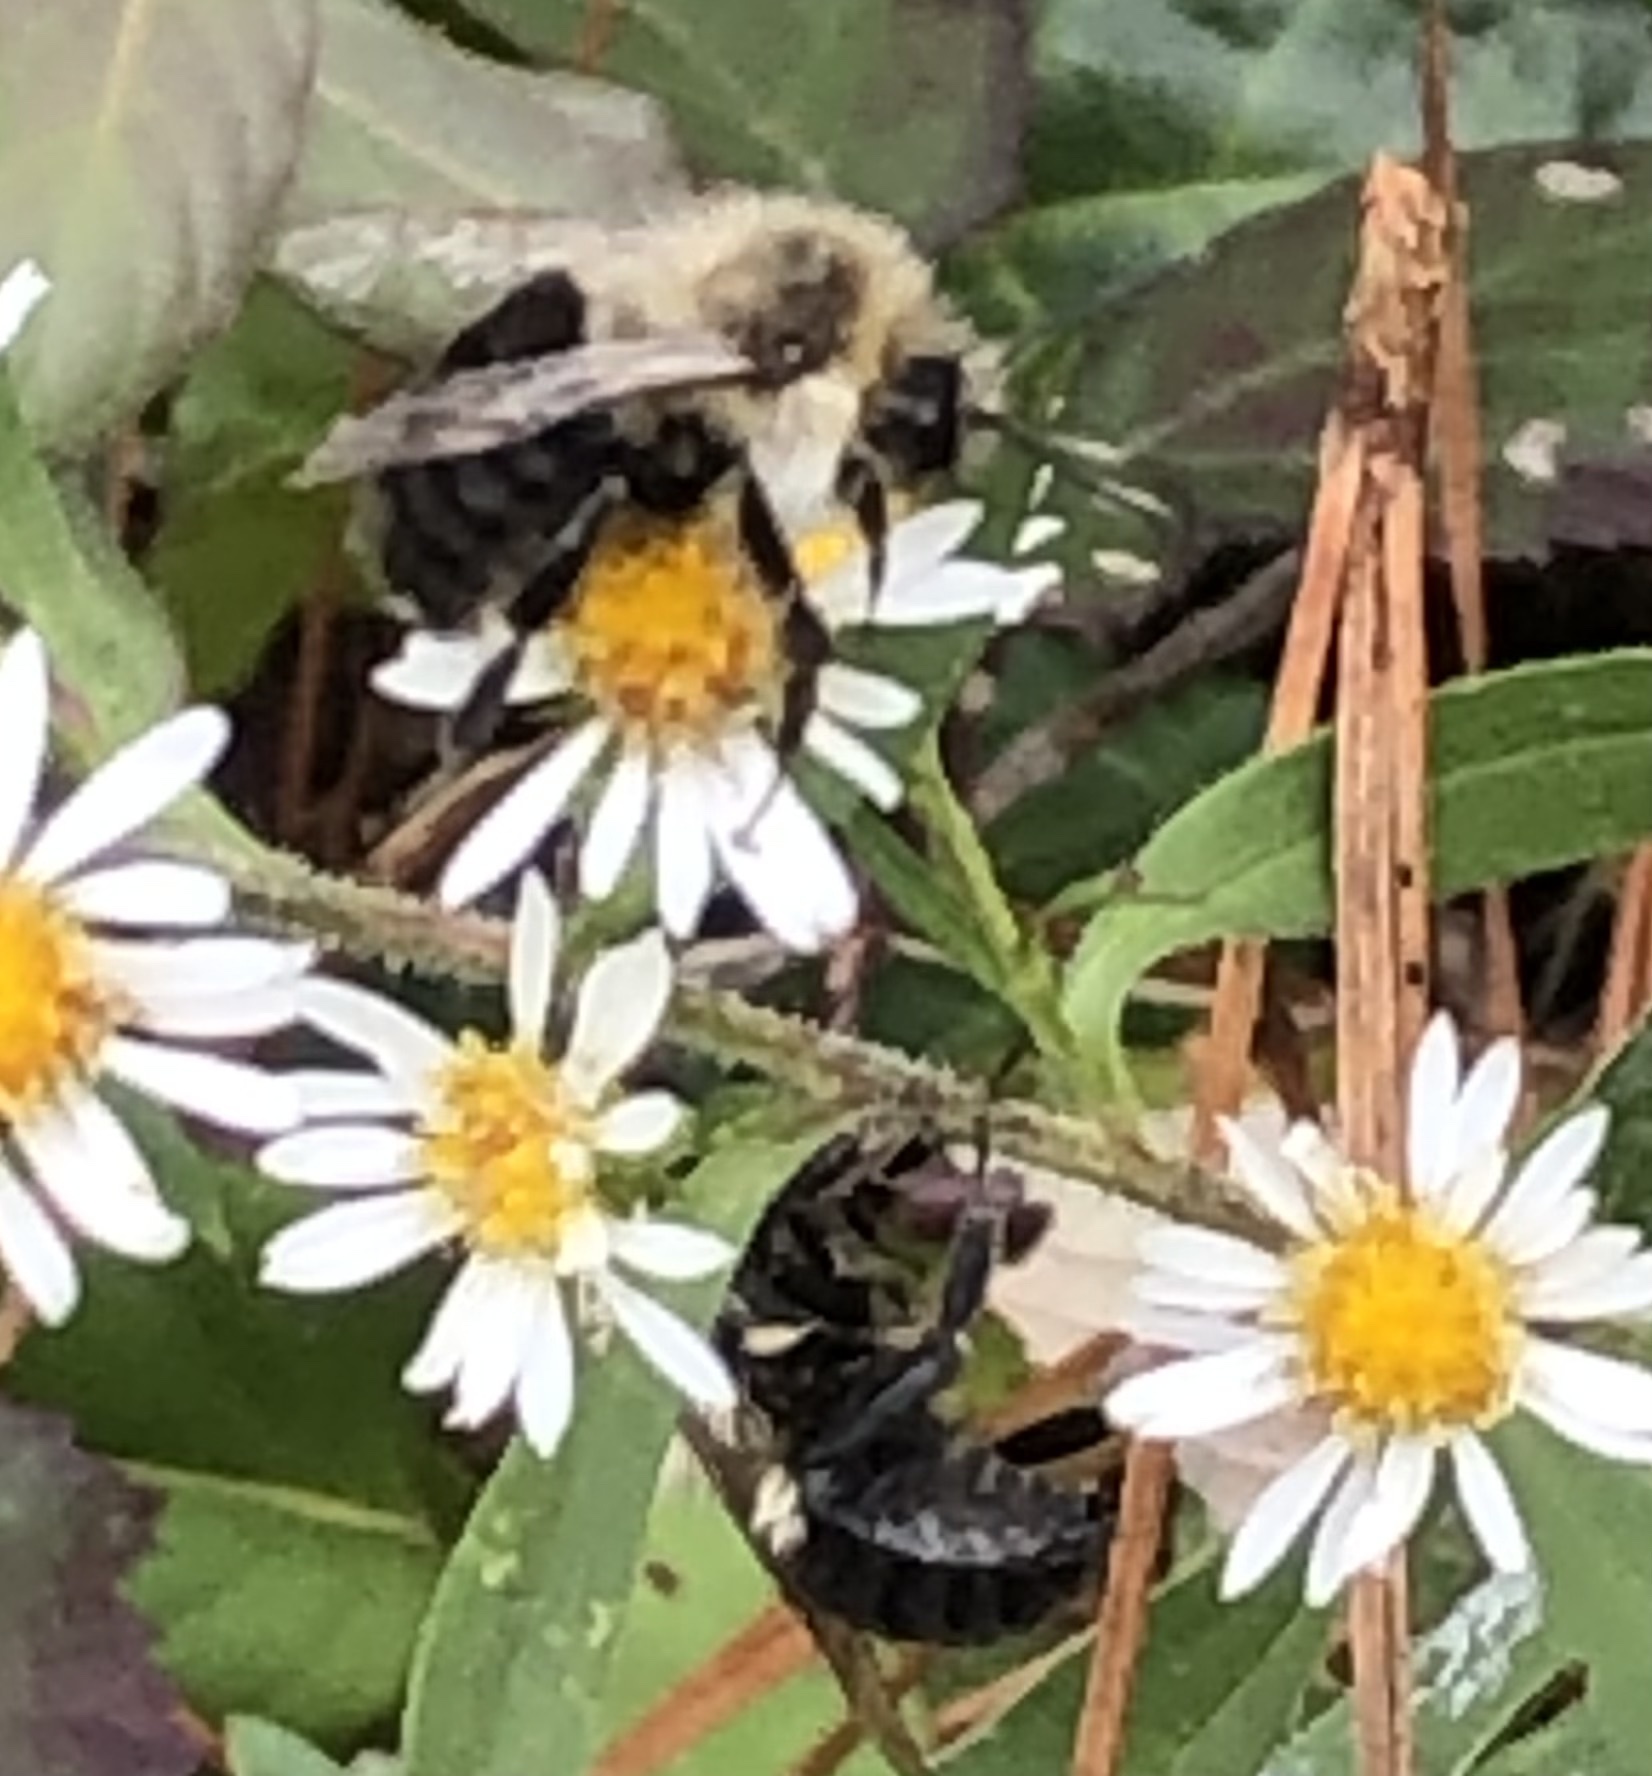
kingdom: Animalia
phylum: Arthropoda
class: Insecta
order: Hymenoptera
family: Apidae
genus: Bombus
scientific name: Bombus impatiens
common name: Common eastern bumble bee
